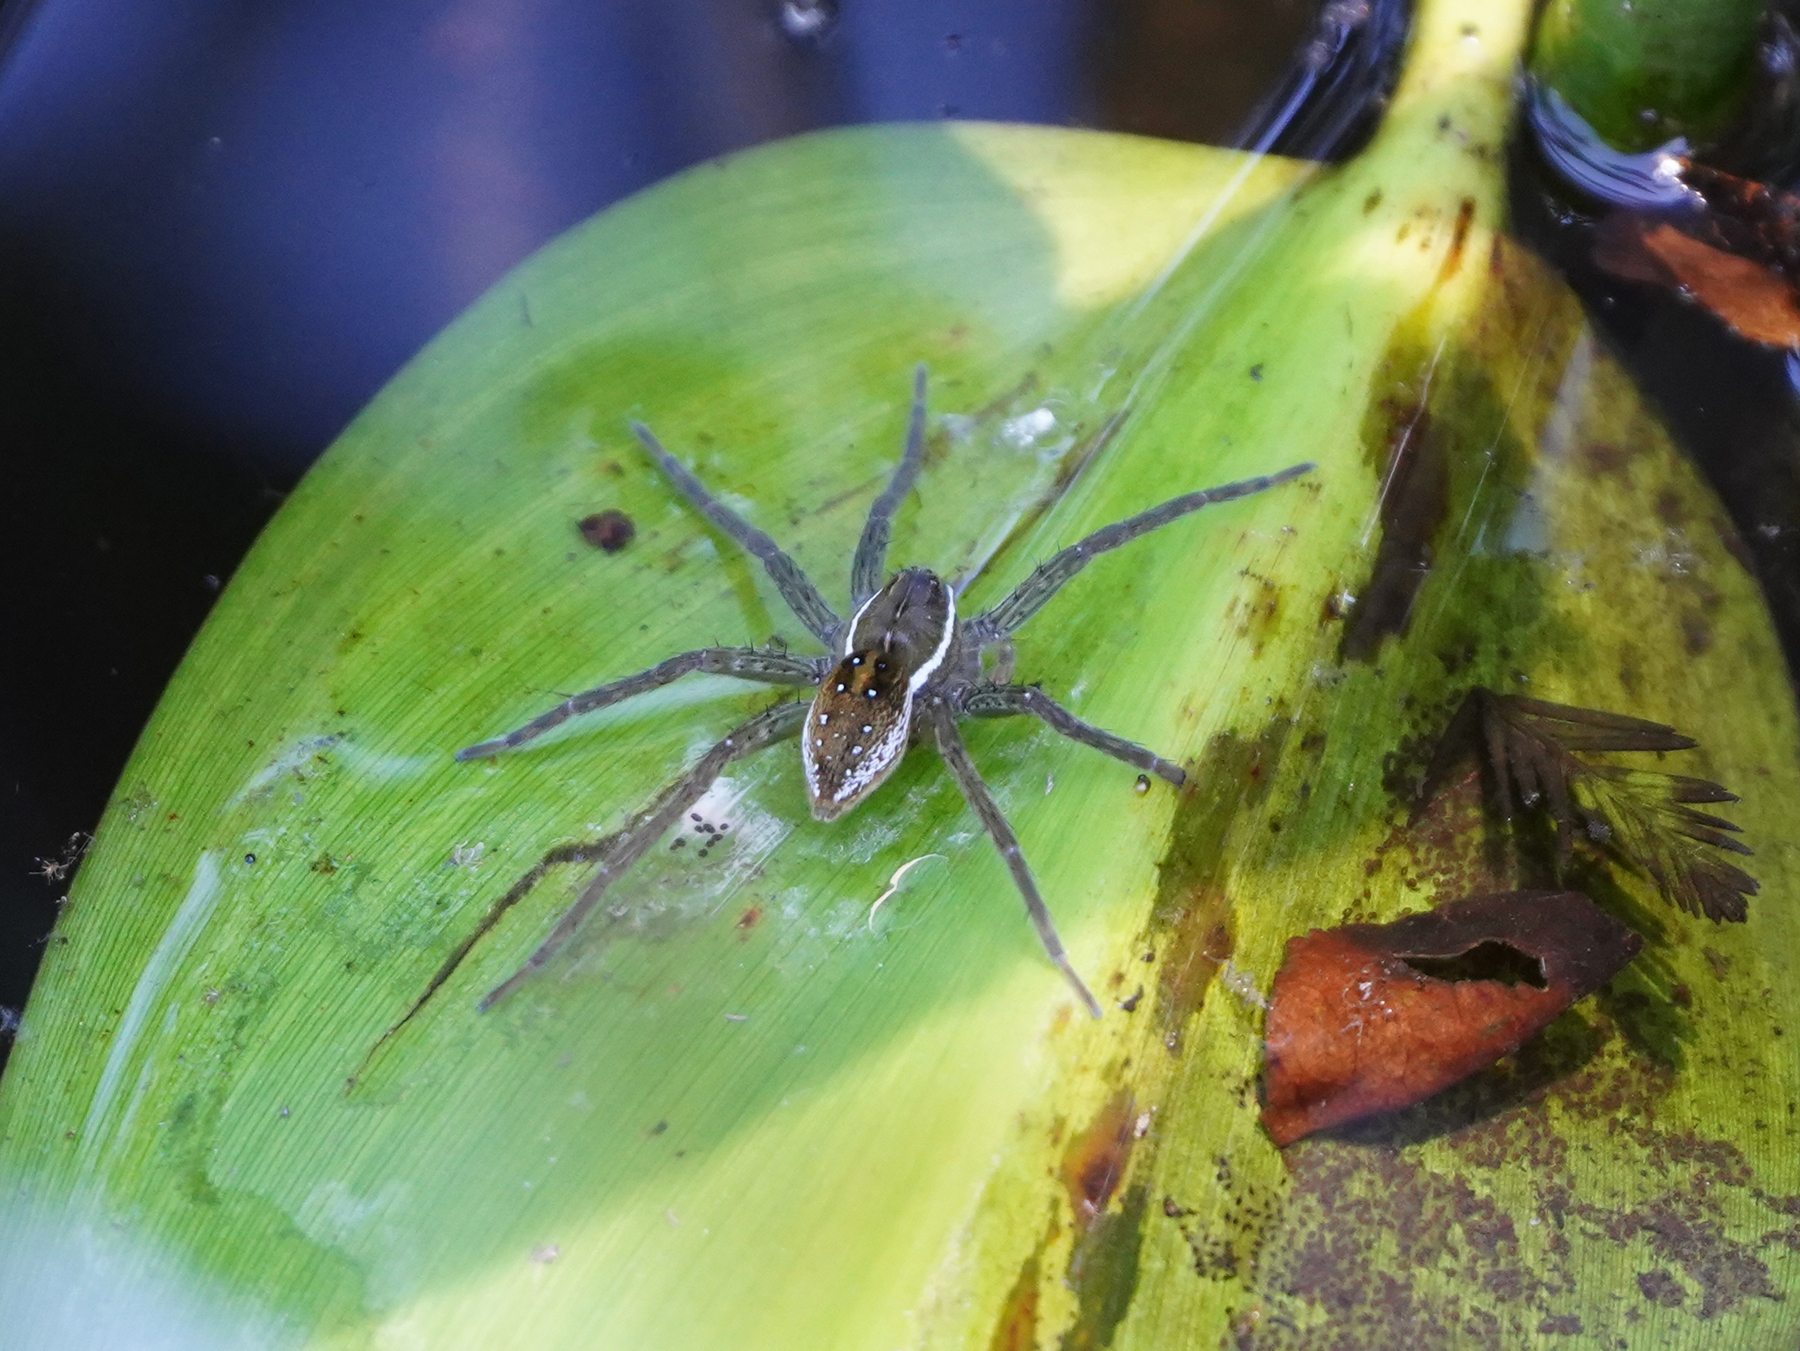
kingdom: Animalia
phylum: Arthropoda
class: Arachnida
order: Araneae
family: Pisauridae
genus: Dolomedes
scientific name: Dolomedes triton
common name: Six-spotted fishing spider
